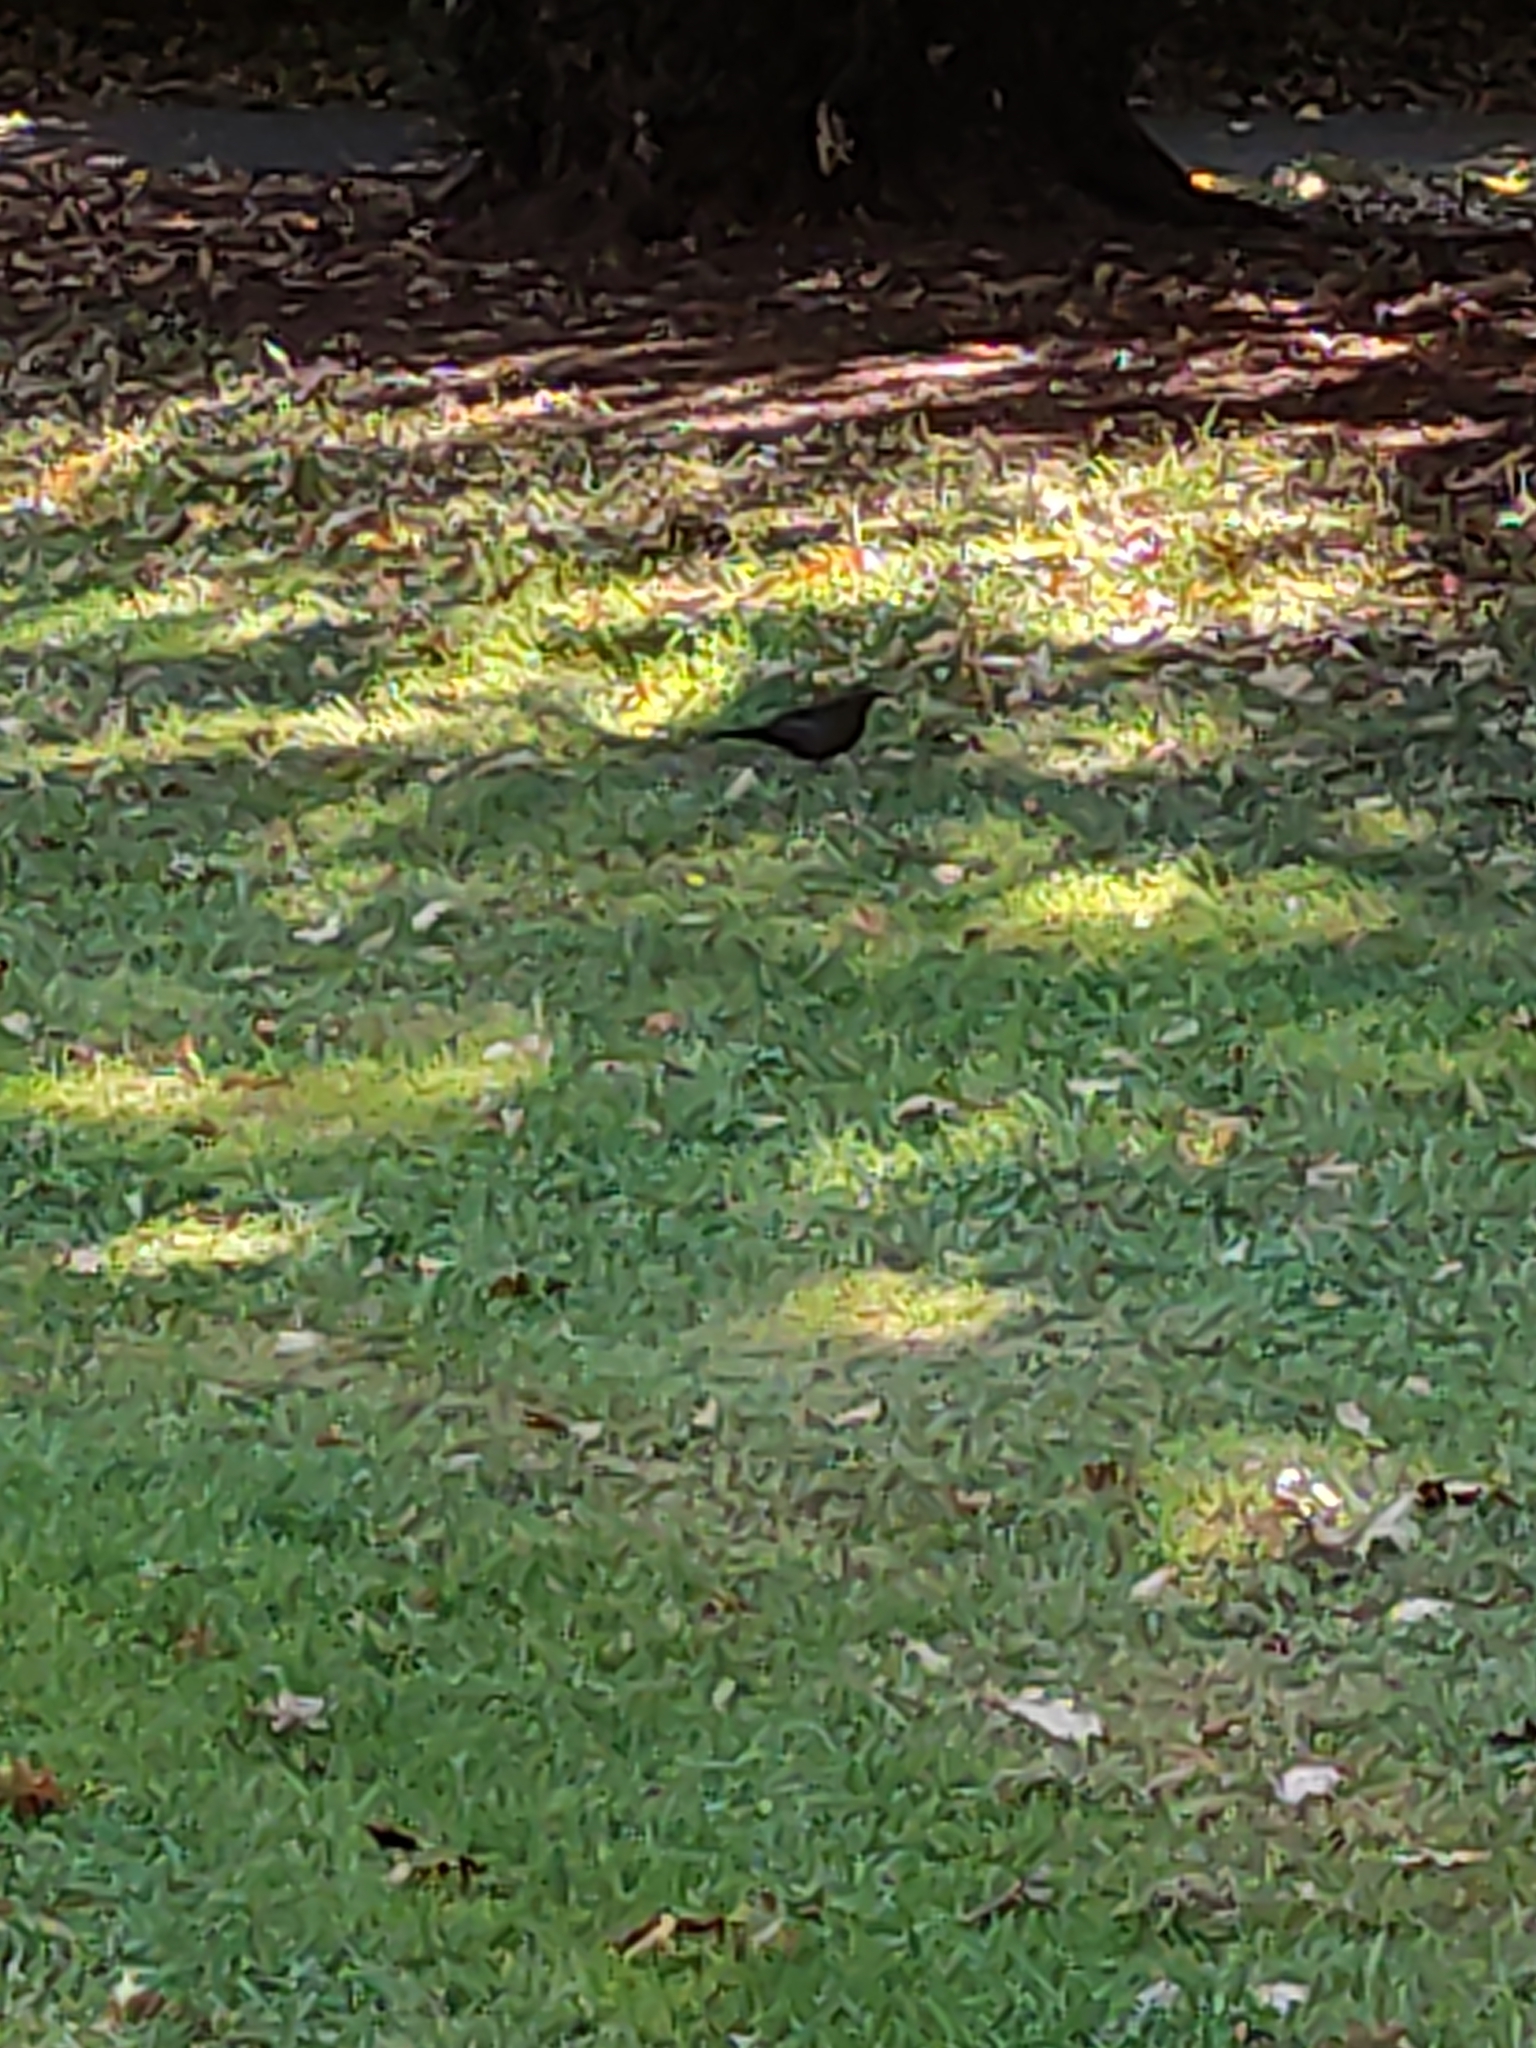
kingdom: Animalia
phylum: Chordata
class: Aves
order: Passeriformes
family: Turdidae
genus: Turdus
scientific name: Turdus merula
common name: Common blackbird
